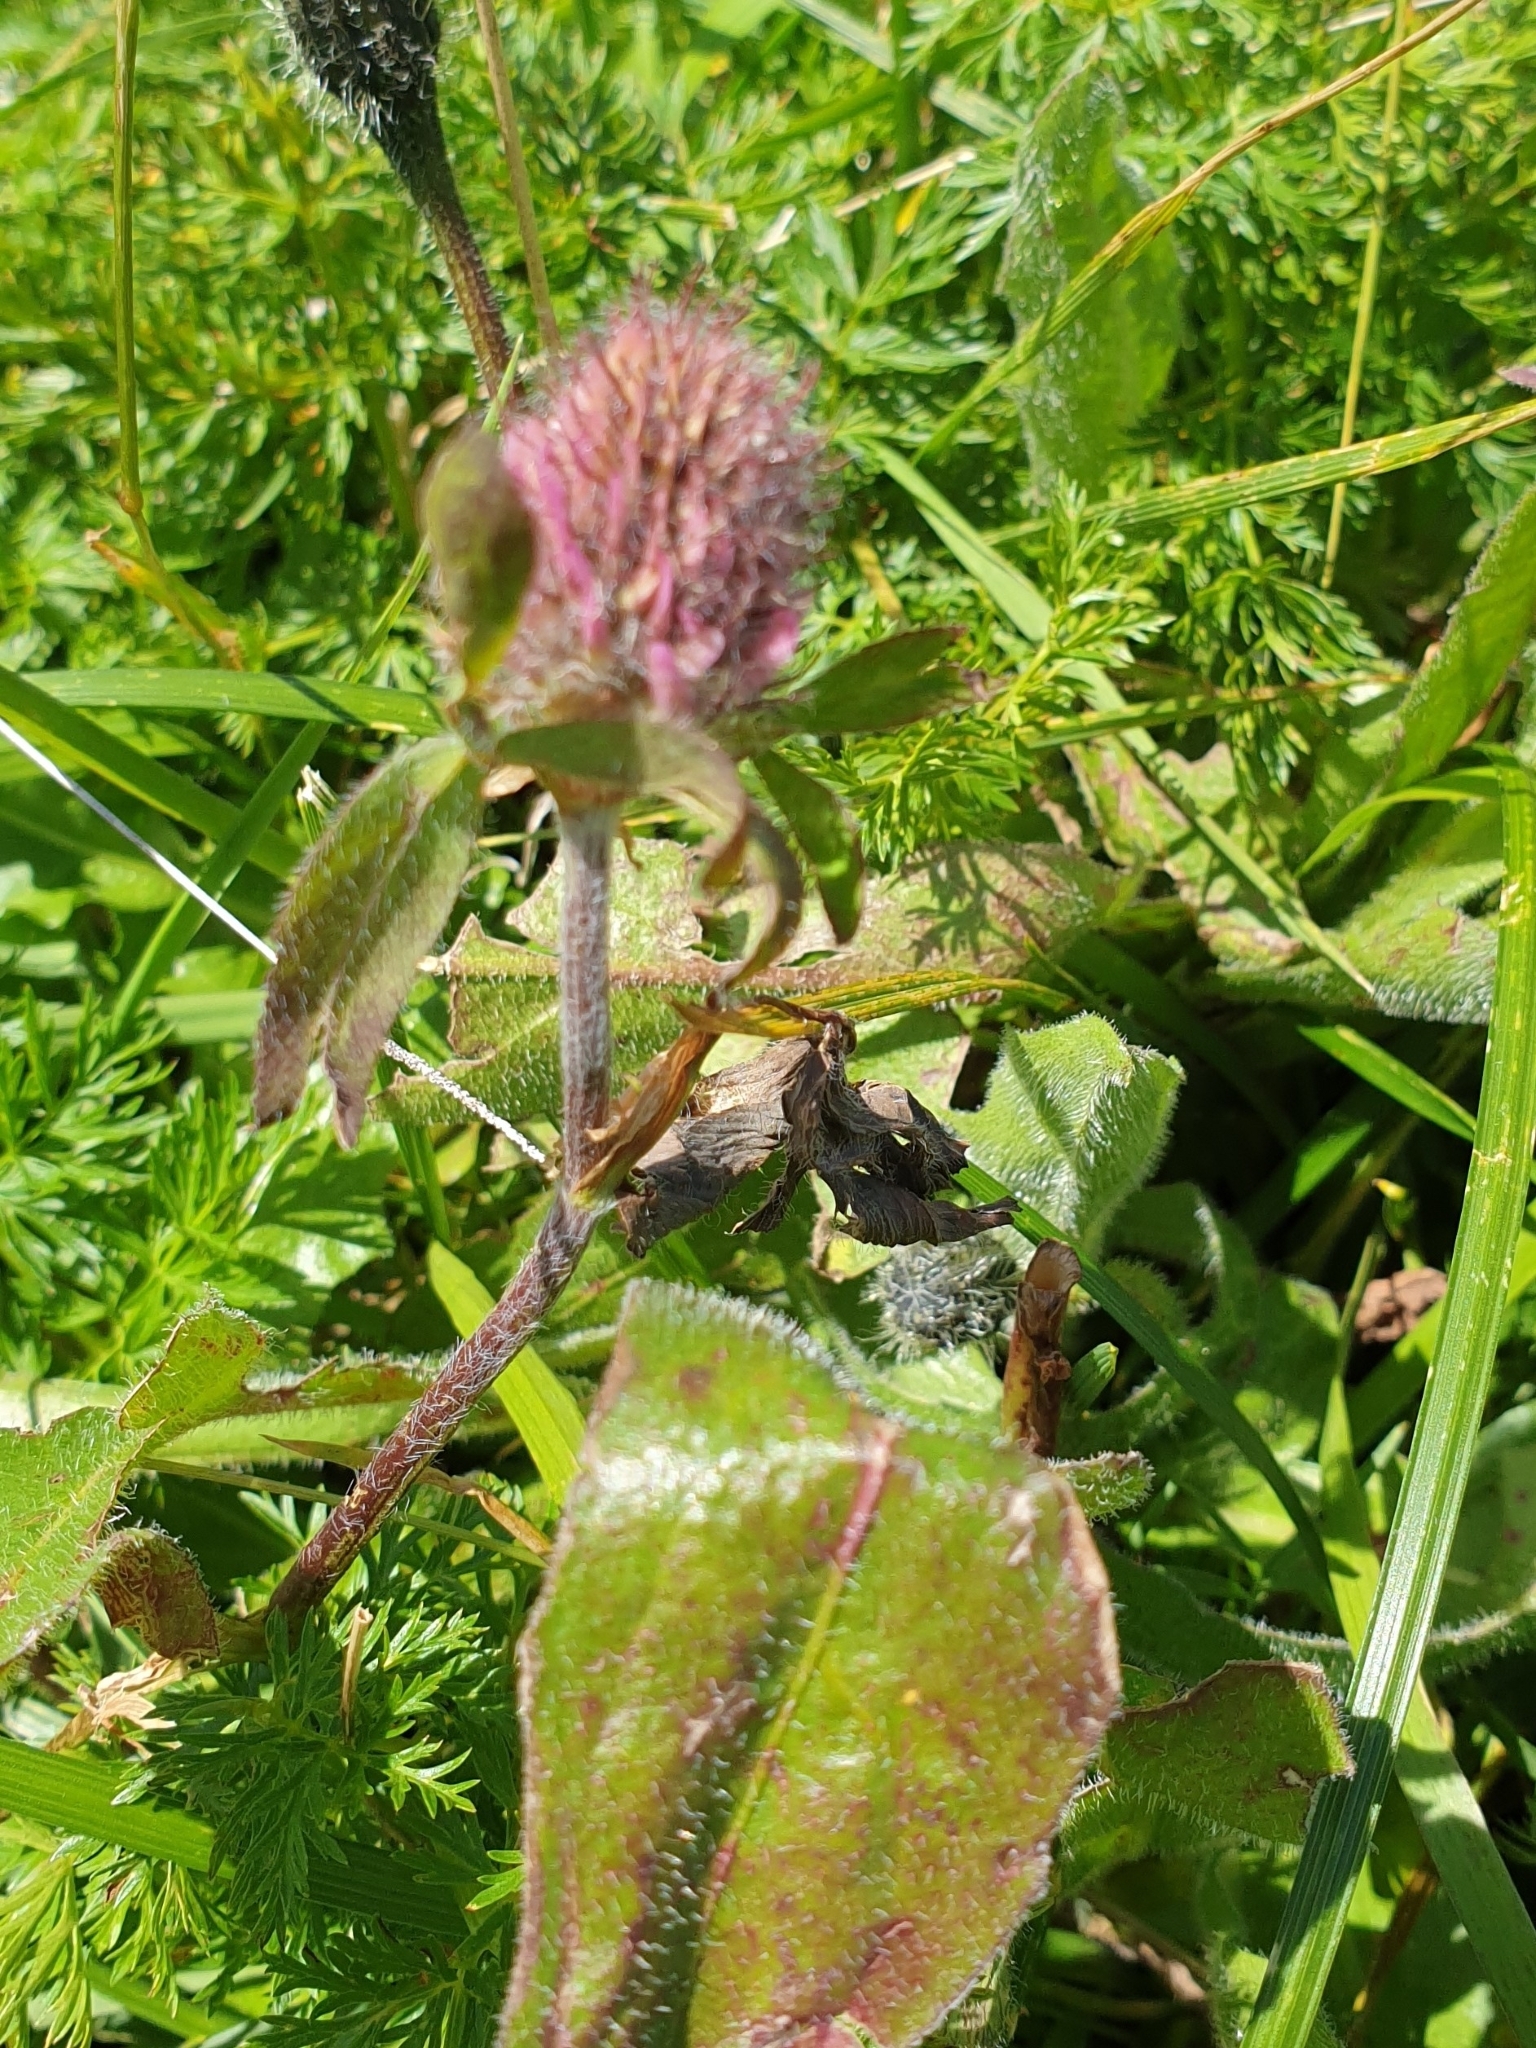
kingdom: Plantae
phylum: Tracheophyta
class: Magnoliopsida
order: Fabales
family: Fabaceae
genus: Trifolium
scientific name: Trifolium pratense
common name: Red clover
